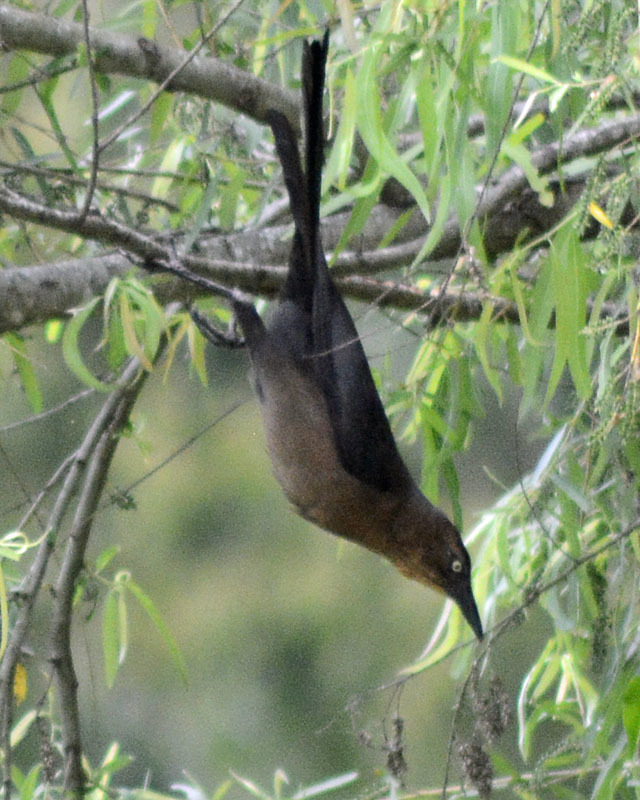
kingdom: Animalia
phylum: Chordata
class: Aves
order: Passeriformes
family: Icteridae
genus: Quiscalus
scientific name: Quiscalus mexicanus
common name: Great-tailed grackle
